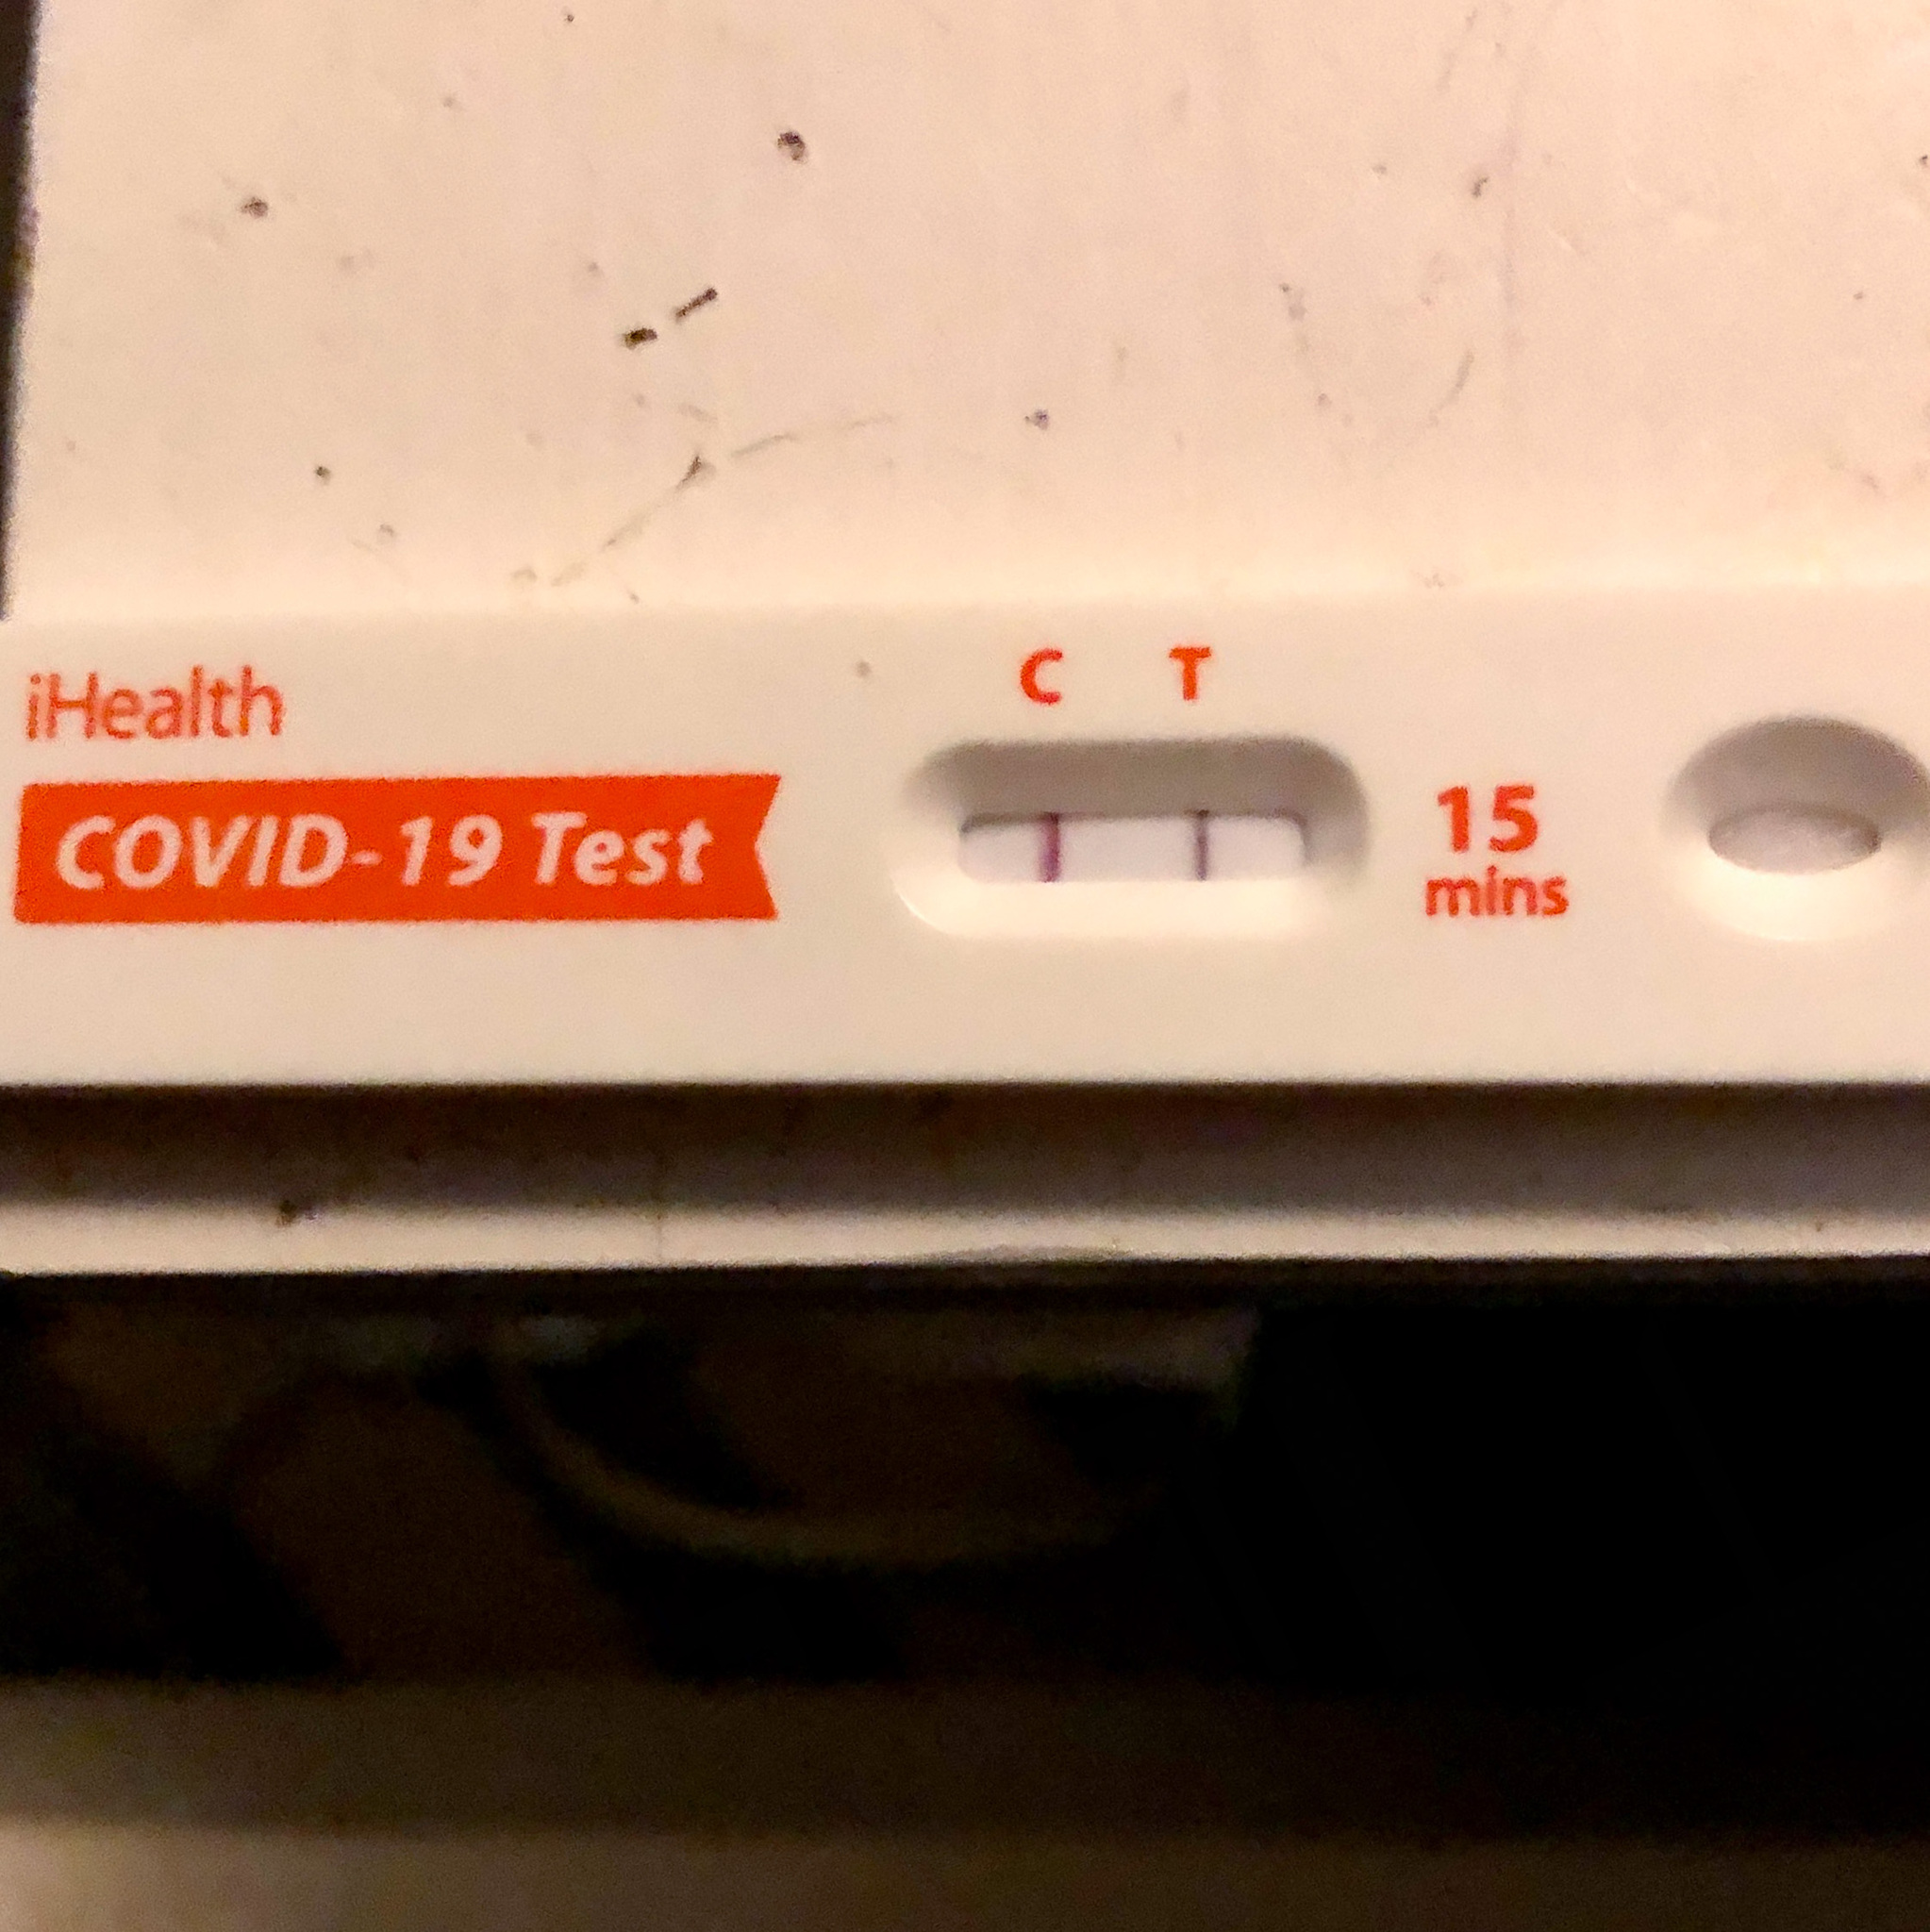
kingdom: Viruses
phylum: Pisuviricota
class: Pisoniviricetes
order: Nidovirales
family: Coronaviridae
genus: Betacoronavirus
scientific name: Betacoronavirus
